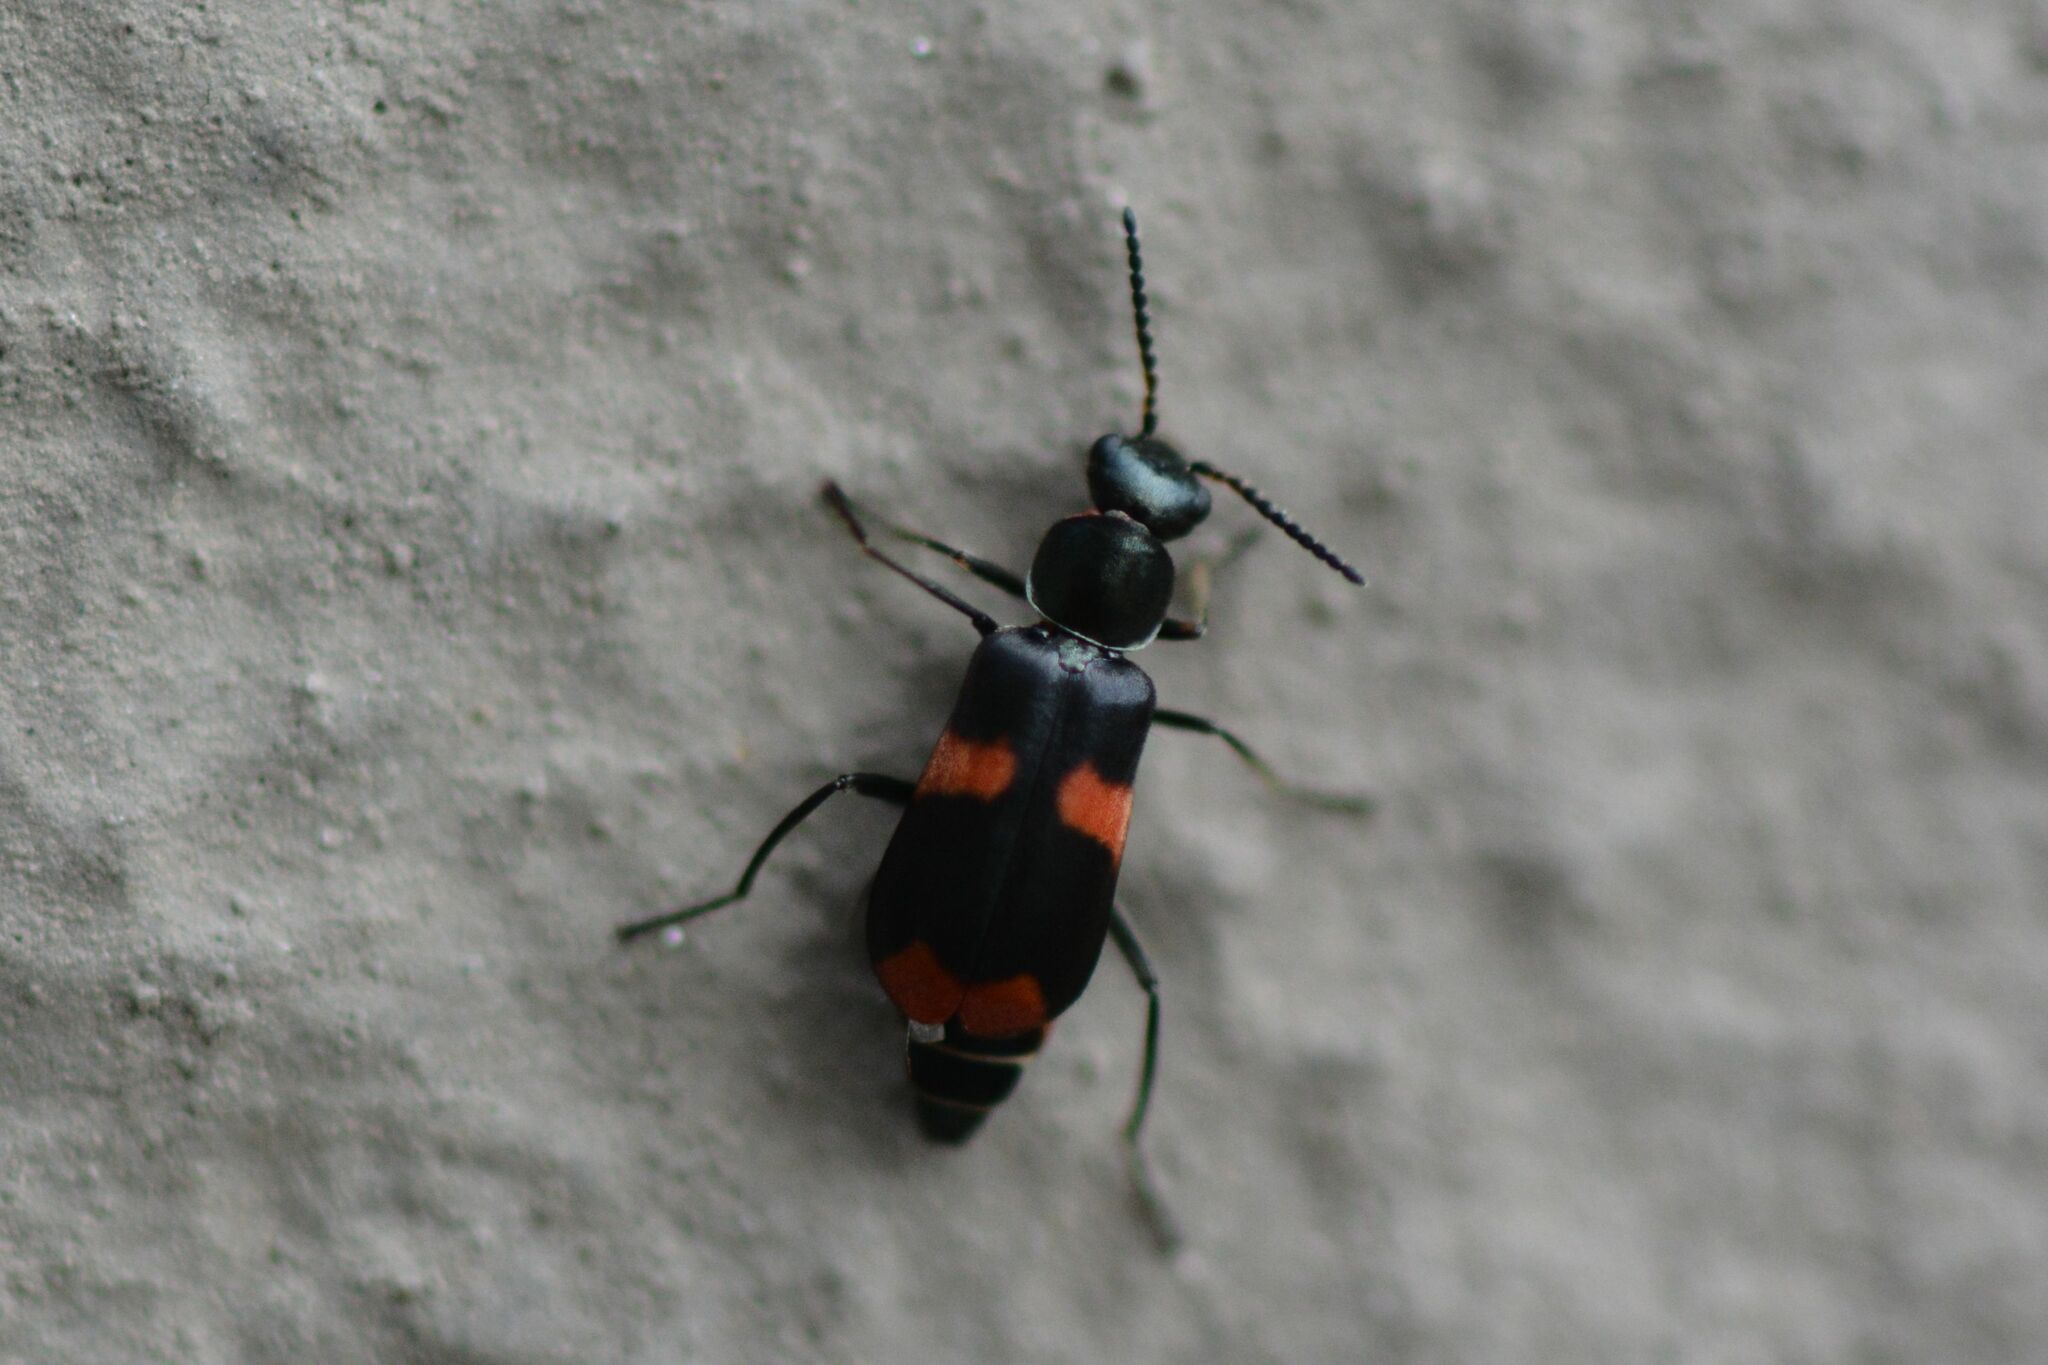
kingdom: Animalia
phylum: Arthropoda
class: Insecta
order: Coleoptera
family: Melyridae
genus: Anthocomus
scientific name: Anthocomus fasciatus
